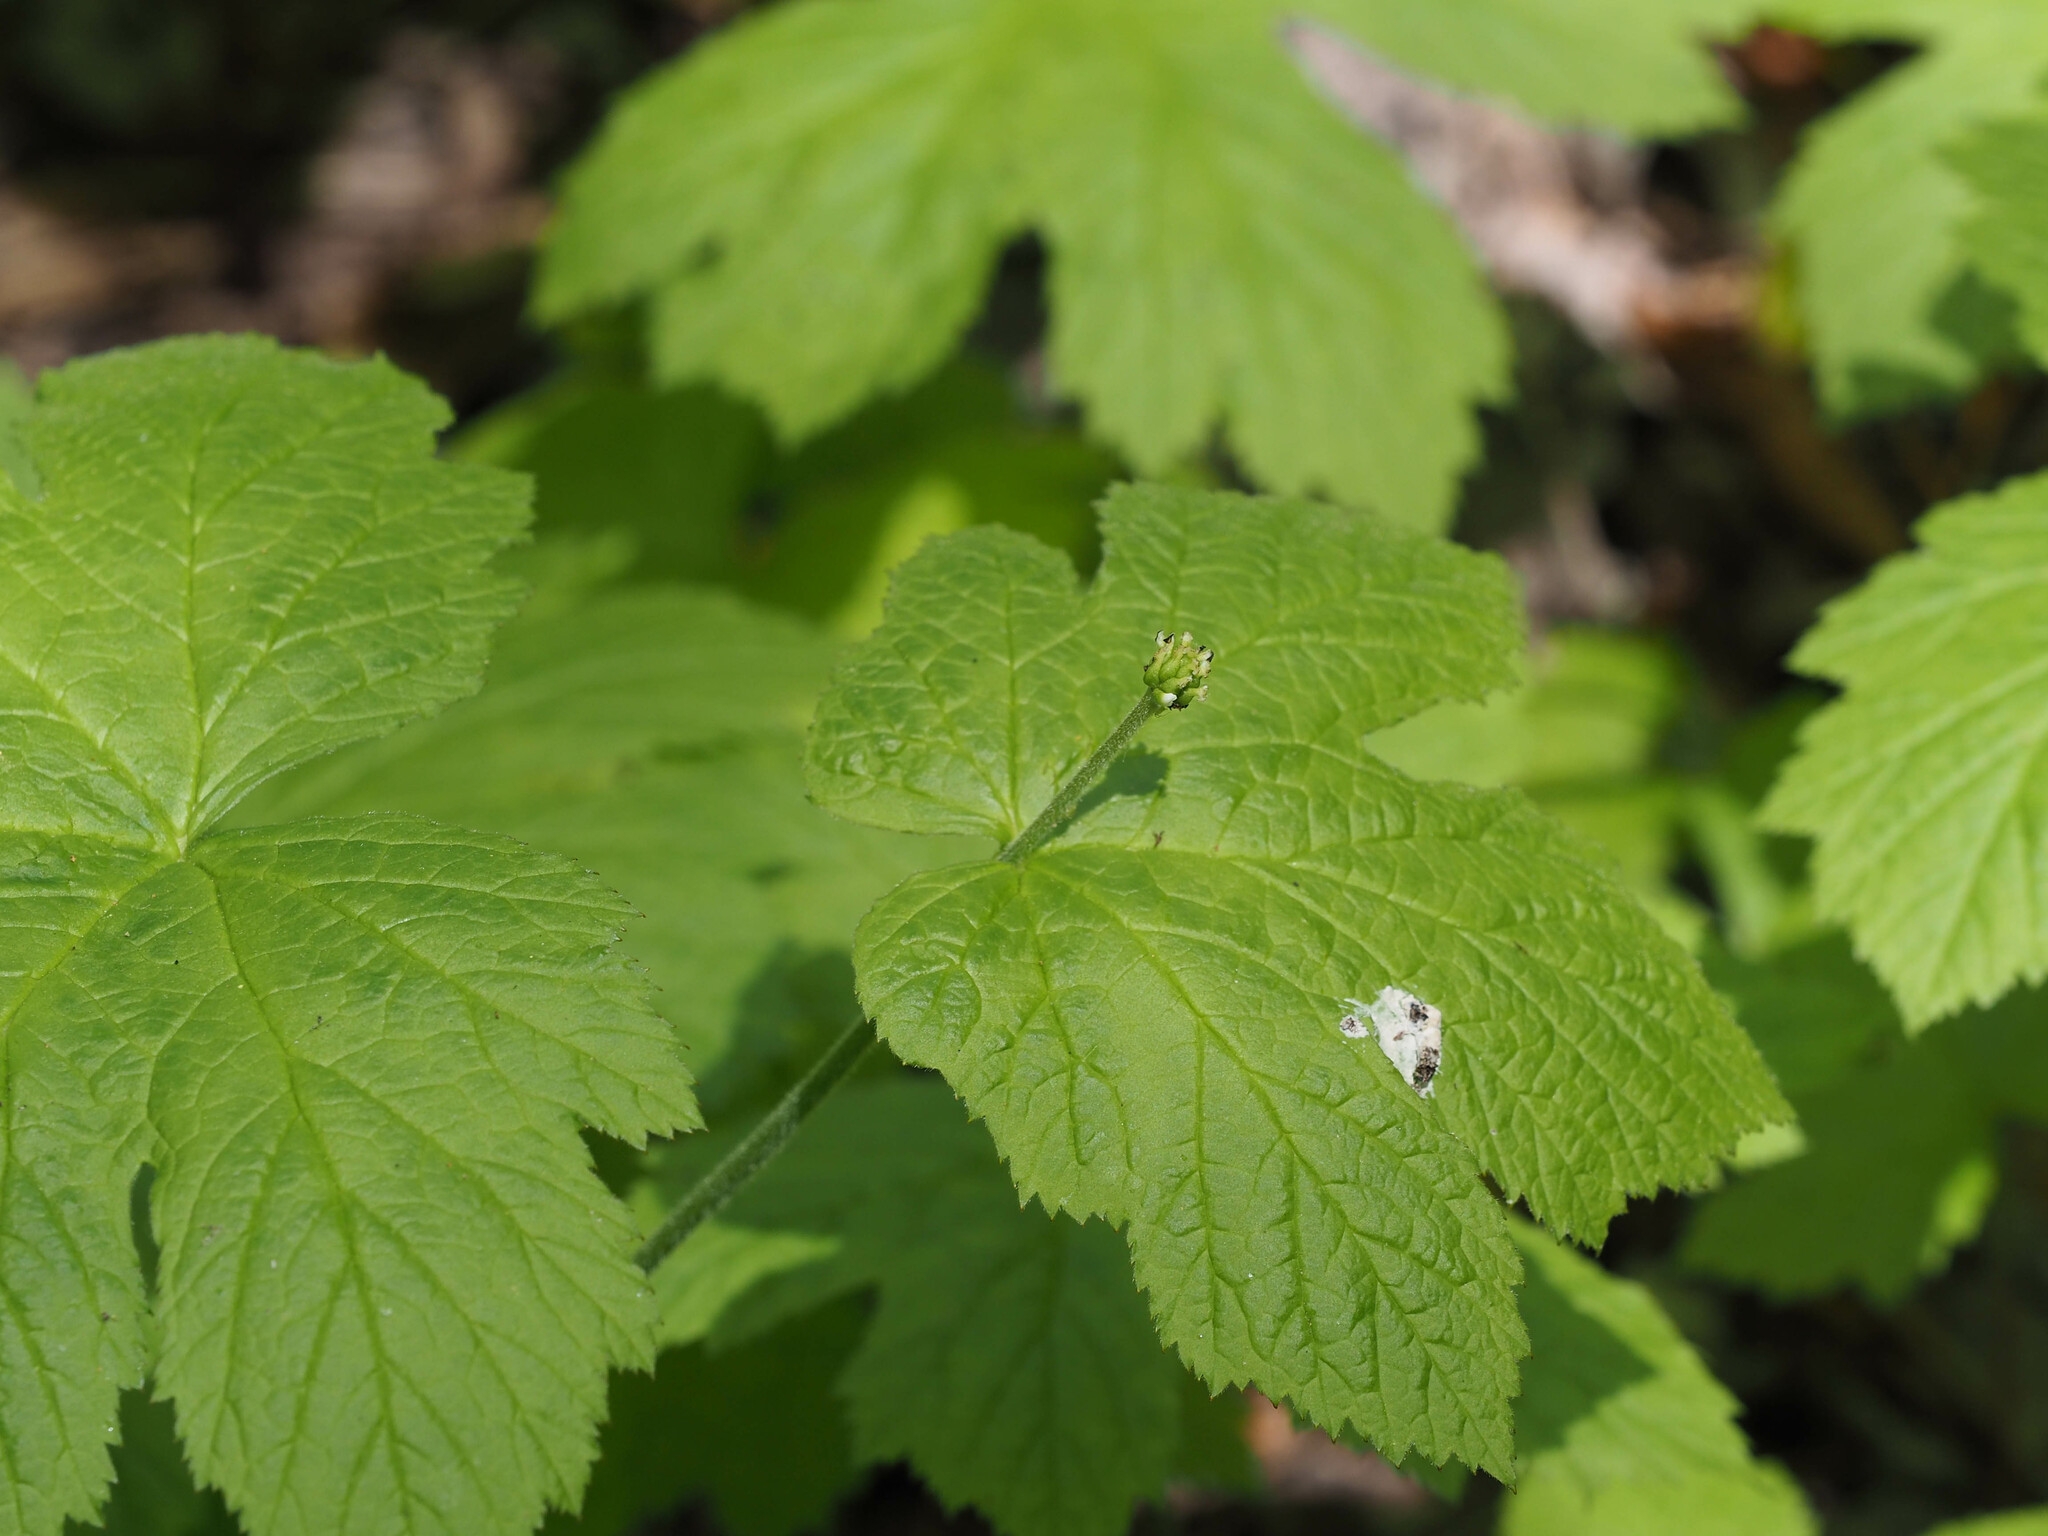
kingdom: Plantae
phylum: Tracheophyta
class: Magnoliopsida
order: Ranunculales
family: Ranunculaceae
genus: Hydrastis
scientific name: Hydrastis canadensis
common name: Goldenseal
